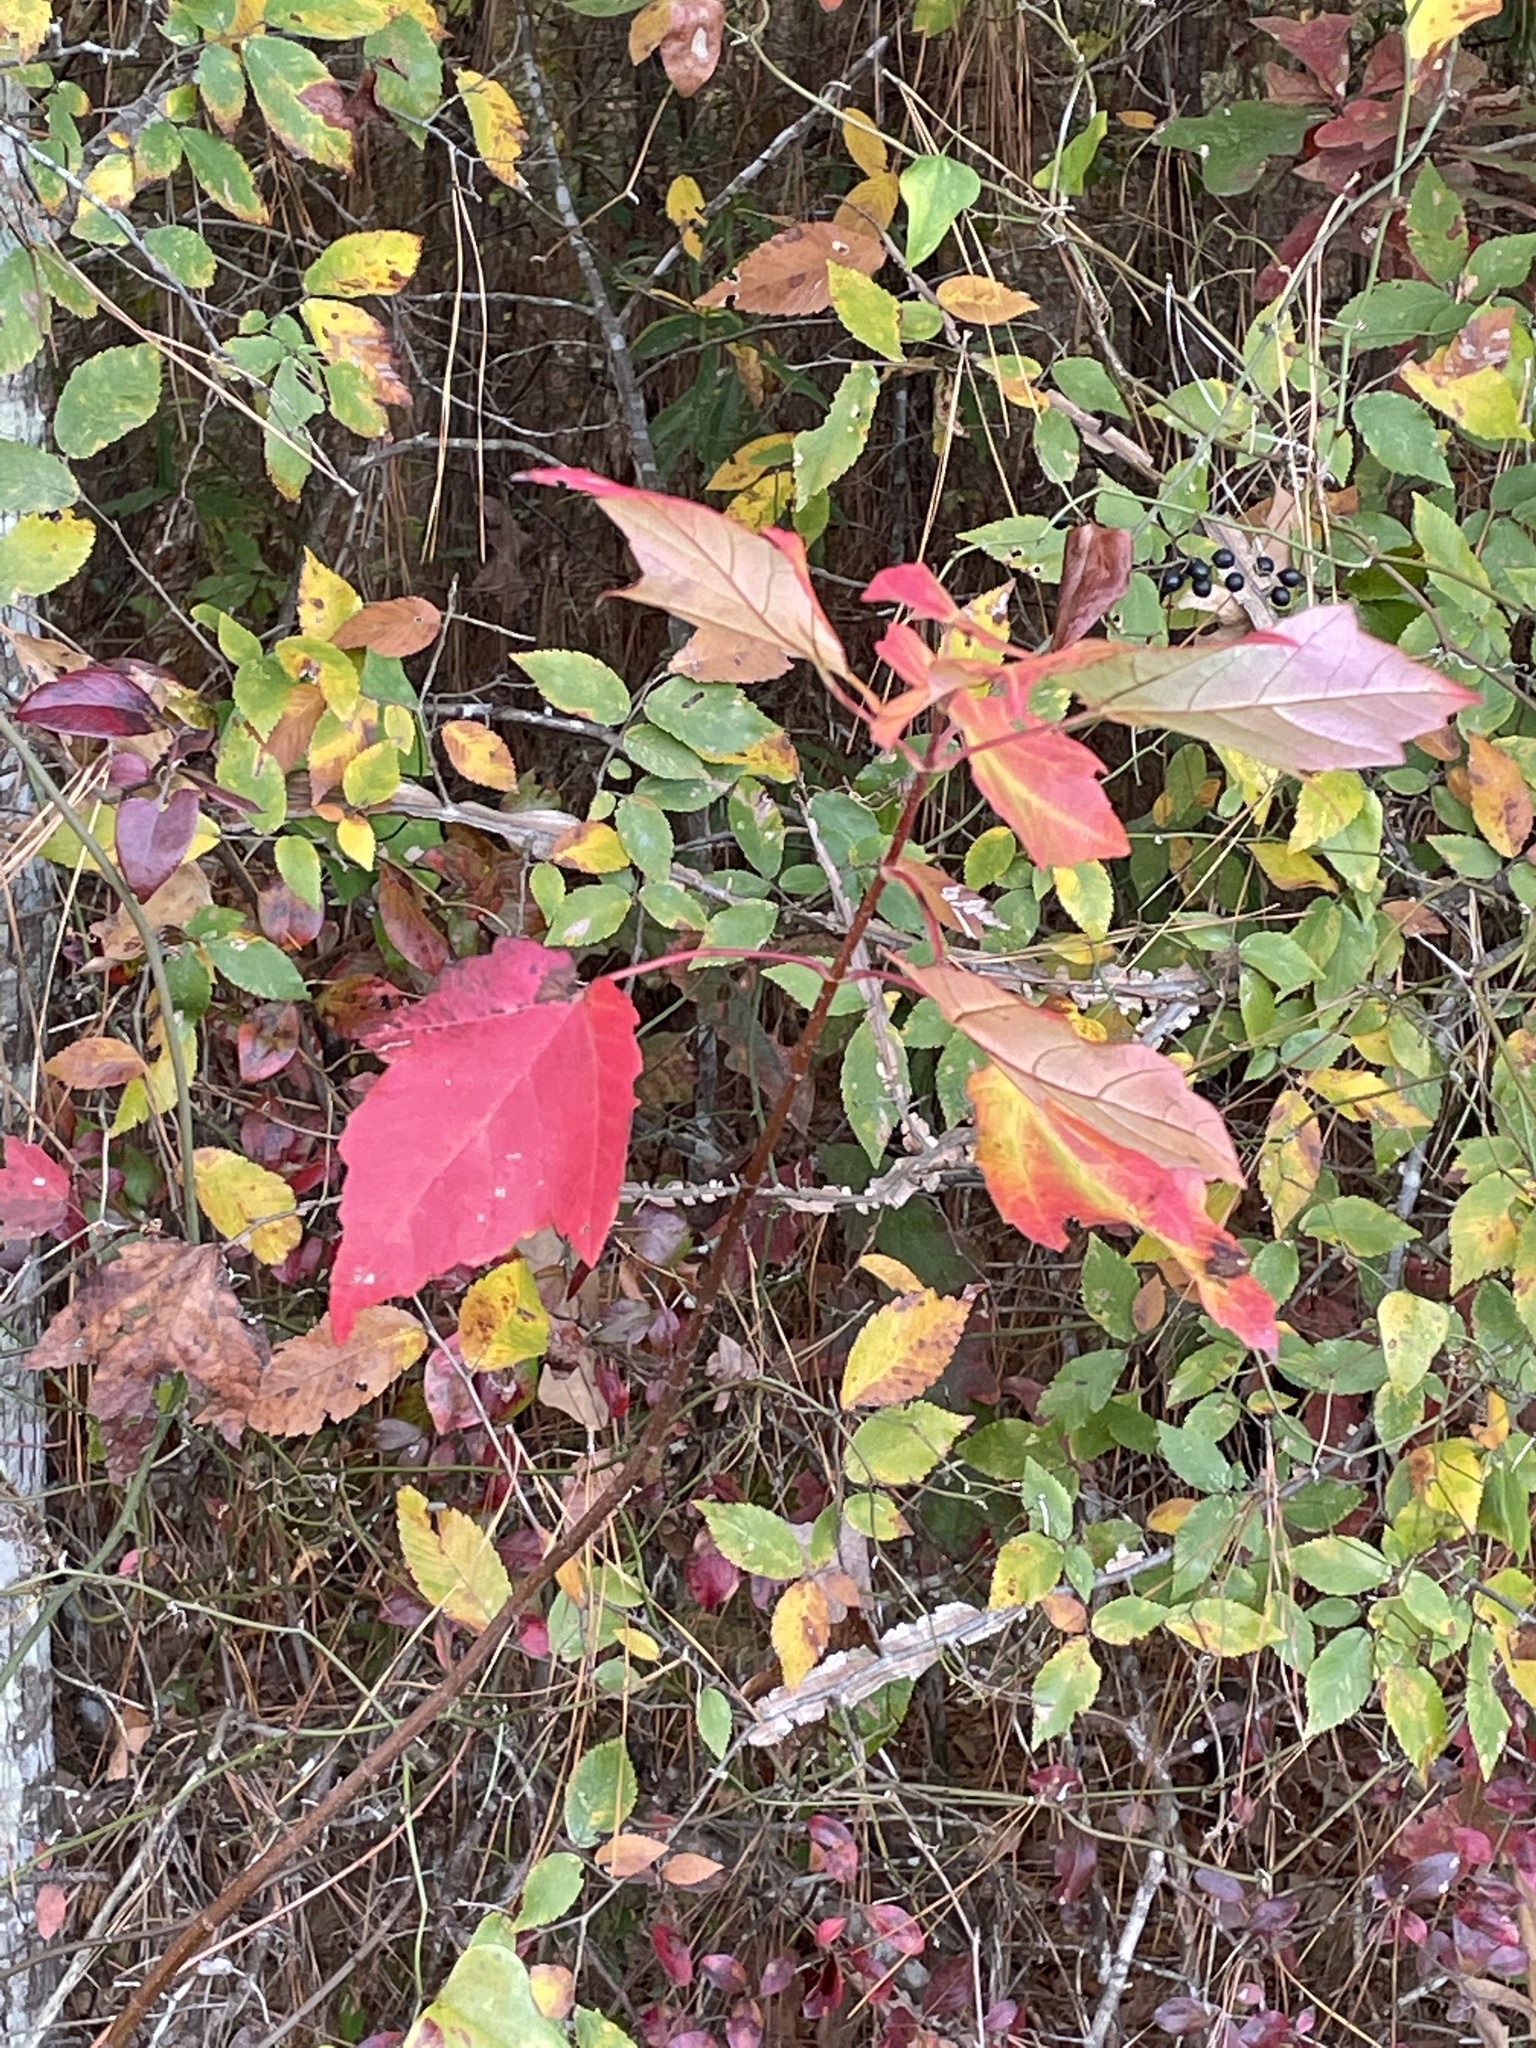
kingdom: Plantae
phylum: Tracheophyta
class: Magnoliopsida
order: Sapindales
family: Sapindaceae
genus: Acer
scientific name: Acer rubrum
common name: Red maple
